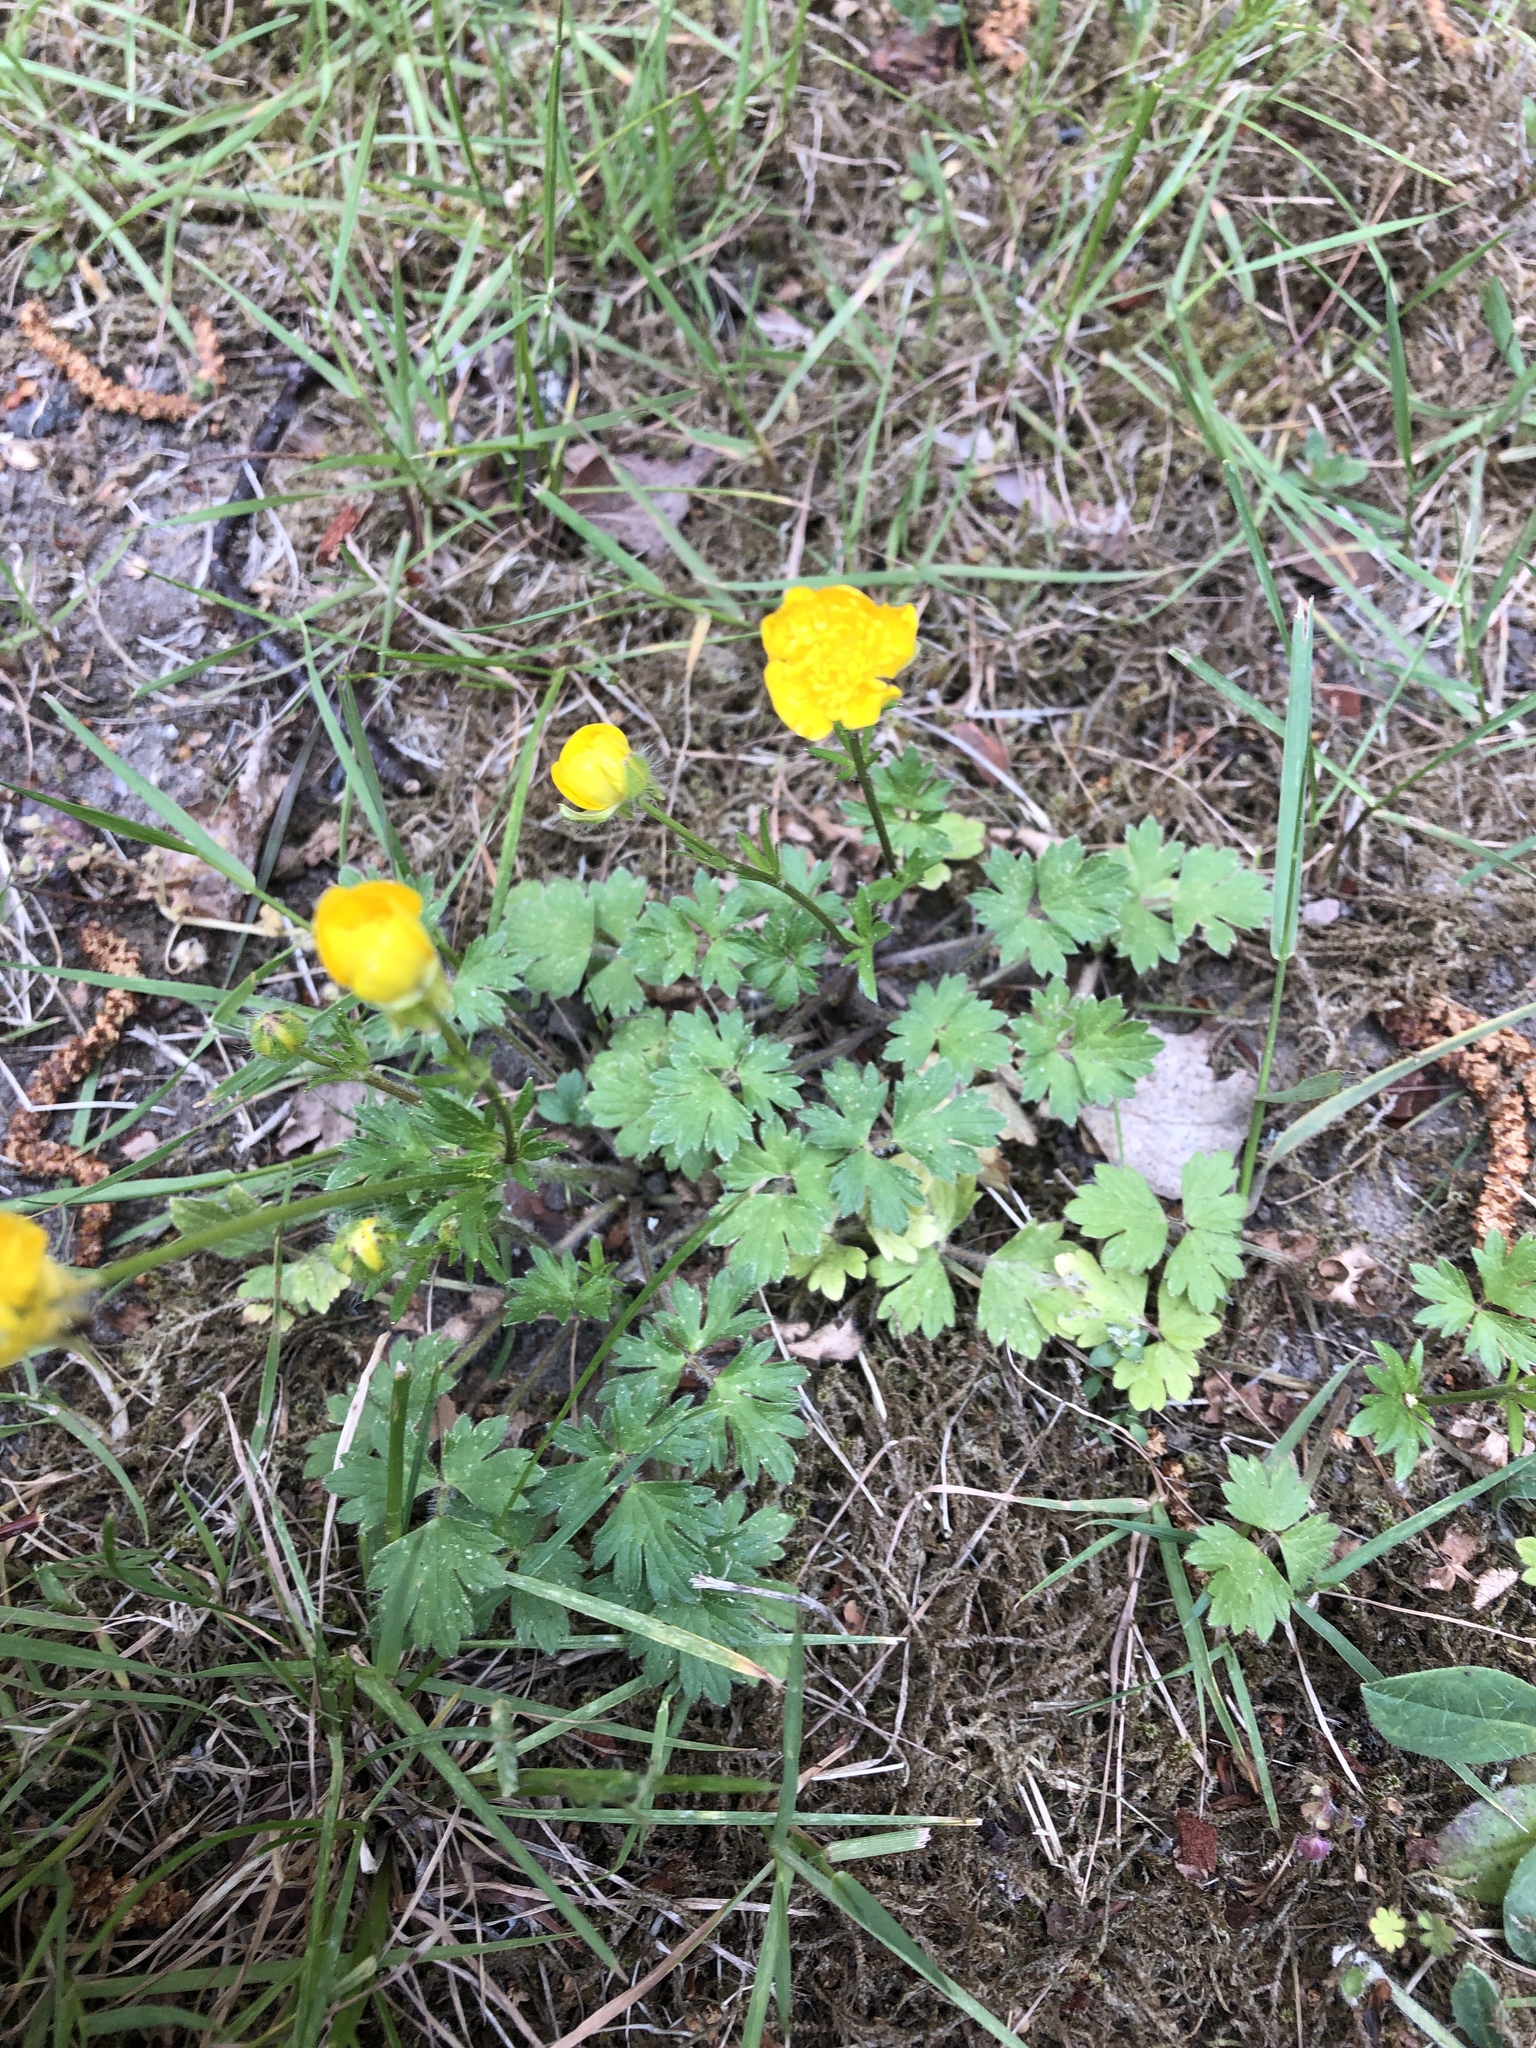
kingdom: Plantae
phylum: Tracheophyta
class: Magnoliopsida
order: Ranunculales
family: Ranunculaceae
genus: Ranunculus
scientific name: Ranunculus bulbosus
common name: Bulbous buttercup
